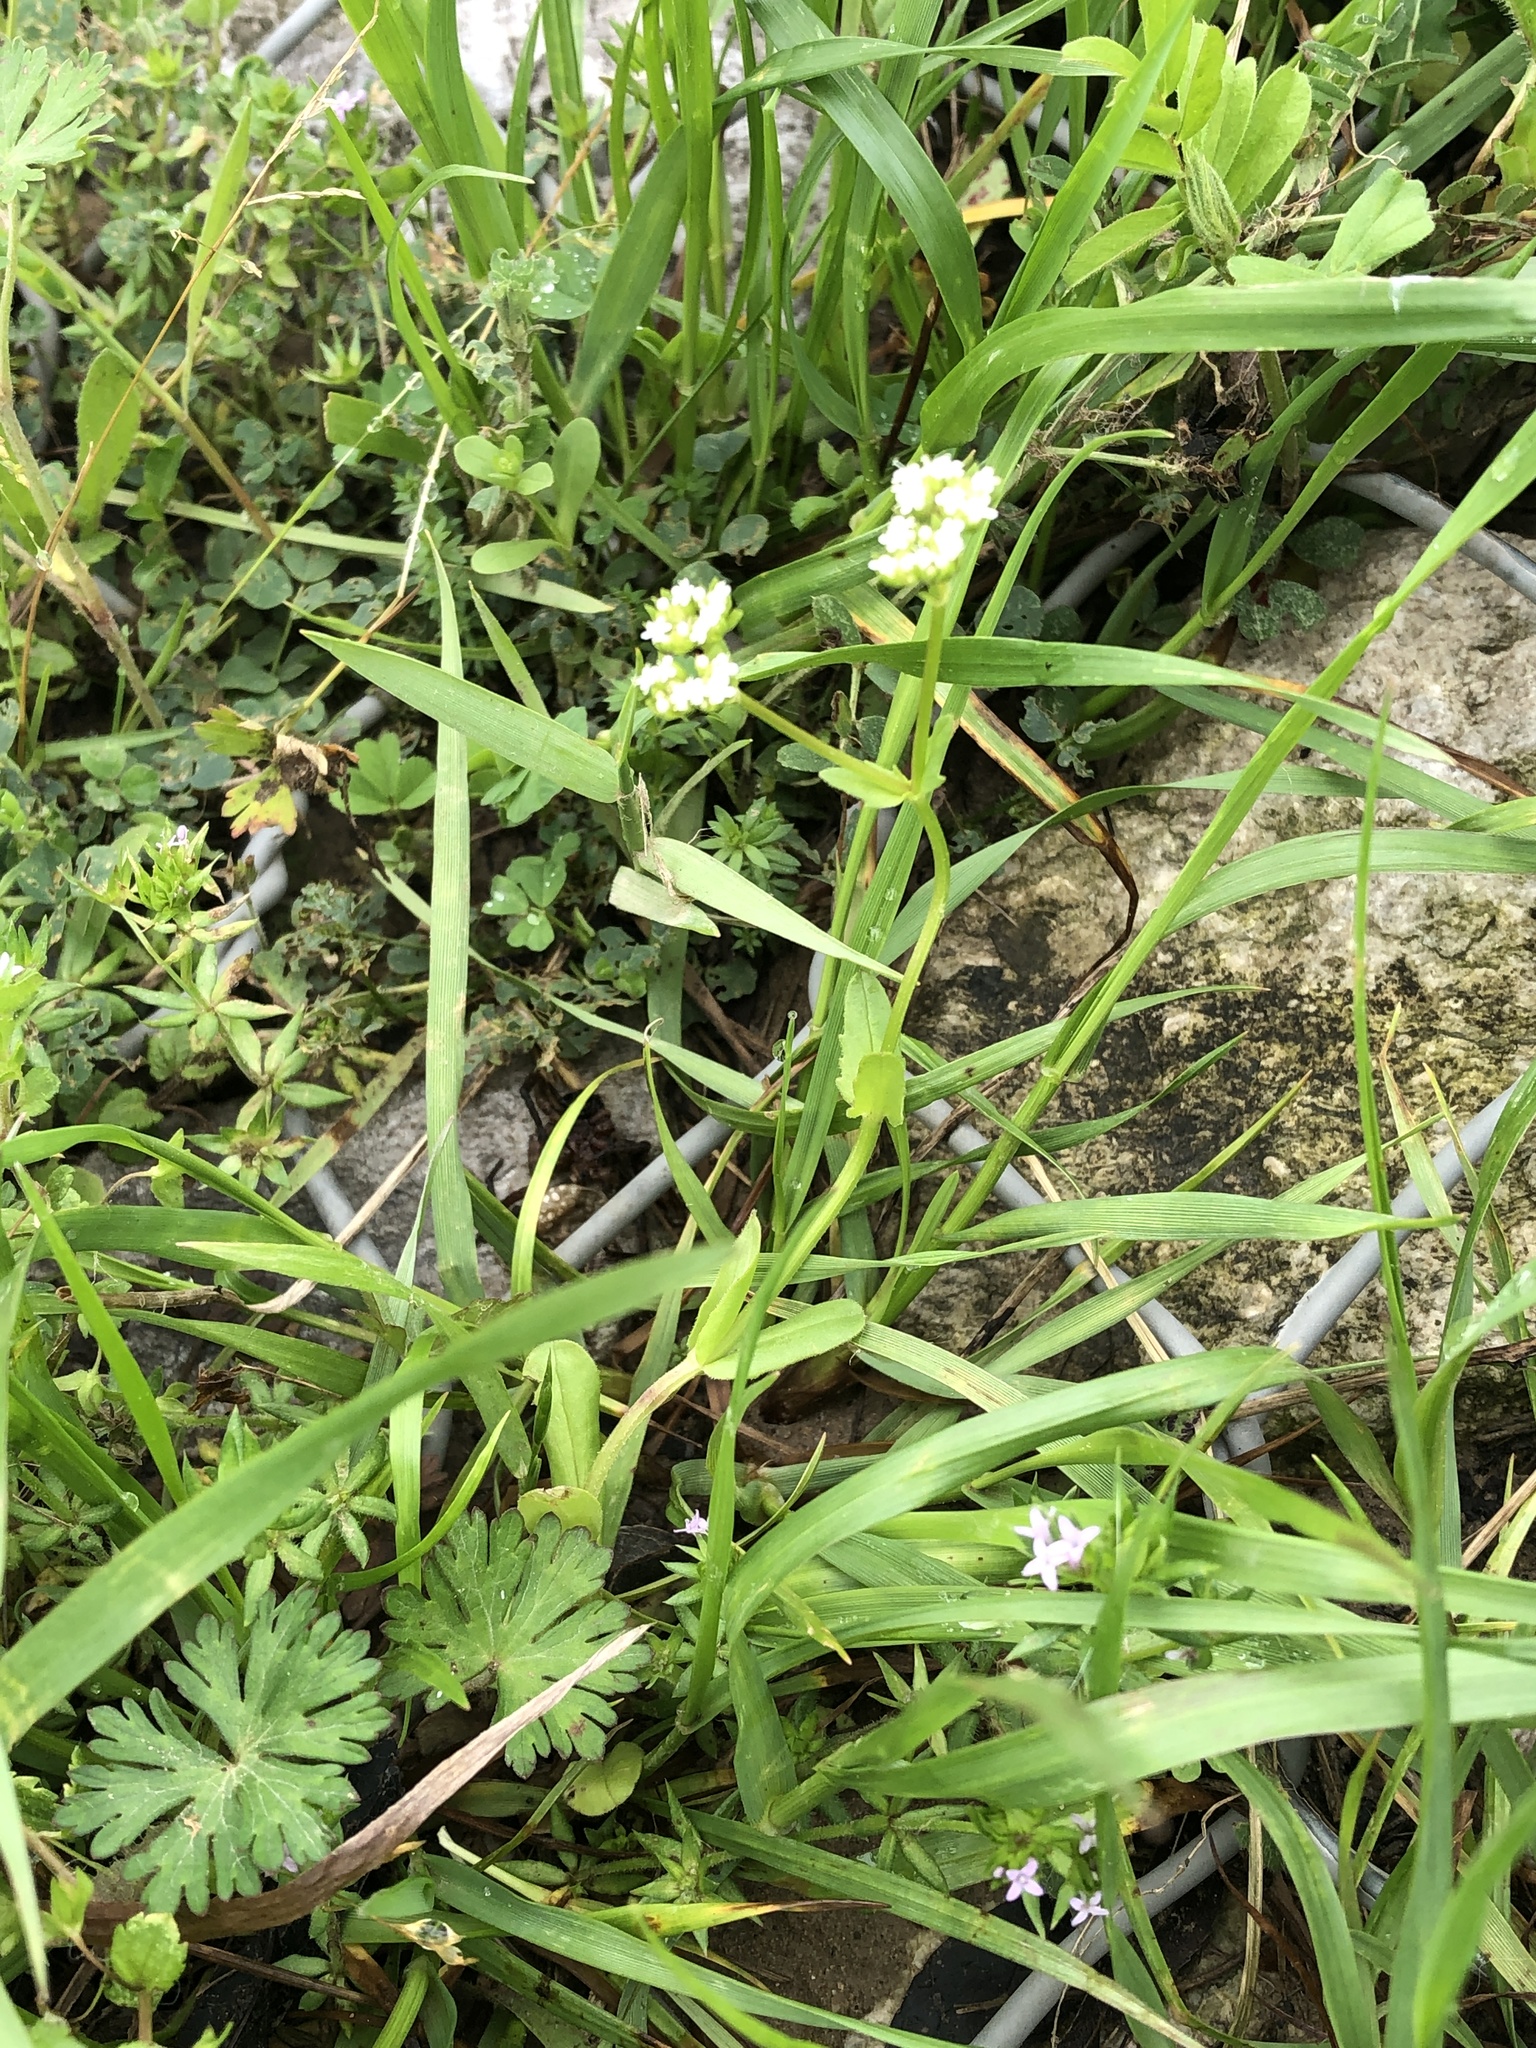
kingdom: Plantae
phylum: Tracheophyta
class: Magnoliopsida
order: Dipsacales
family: Caprifoliaceae
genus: Valerianella
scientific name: Valerianella radiata
